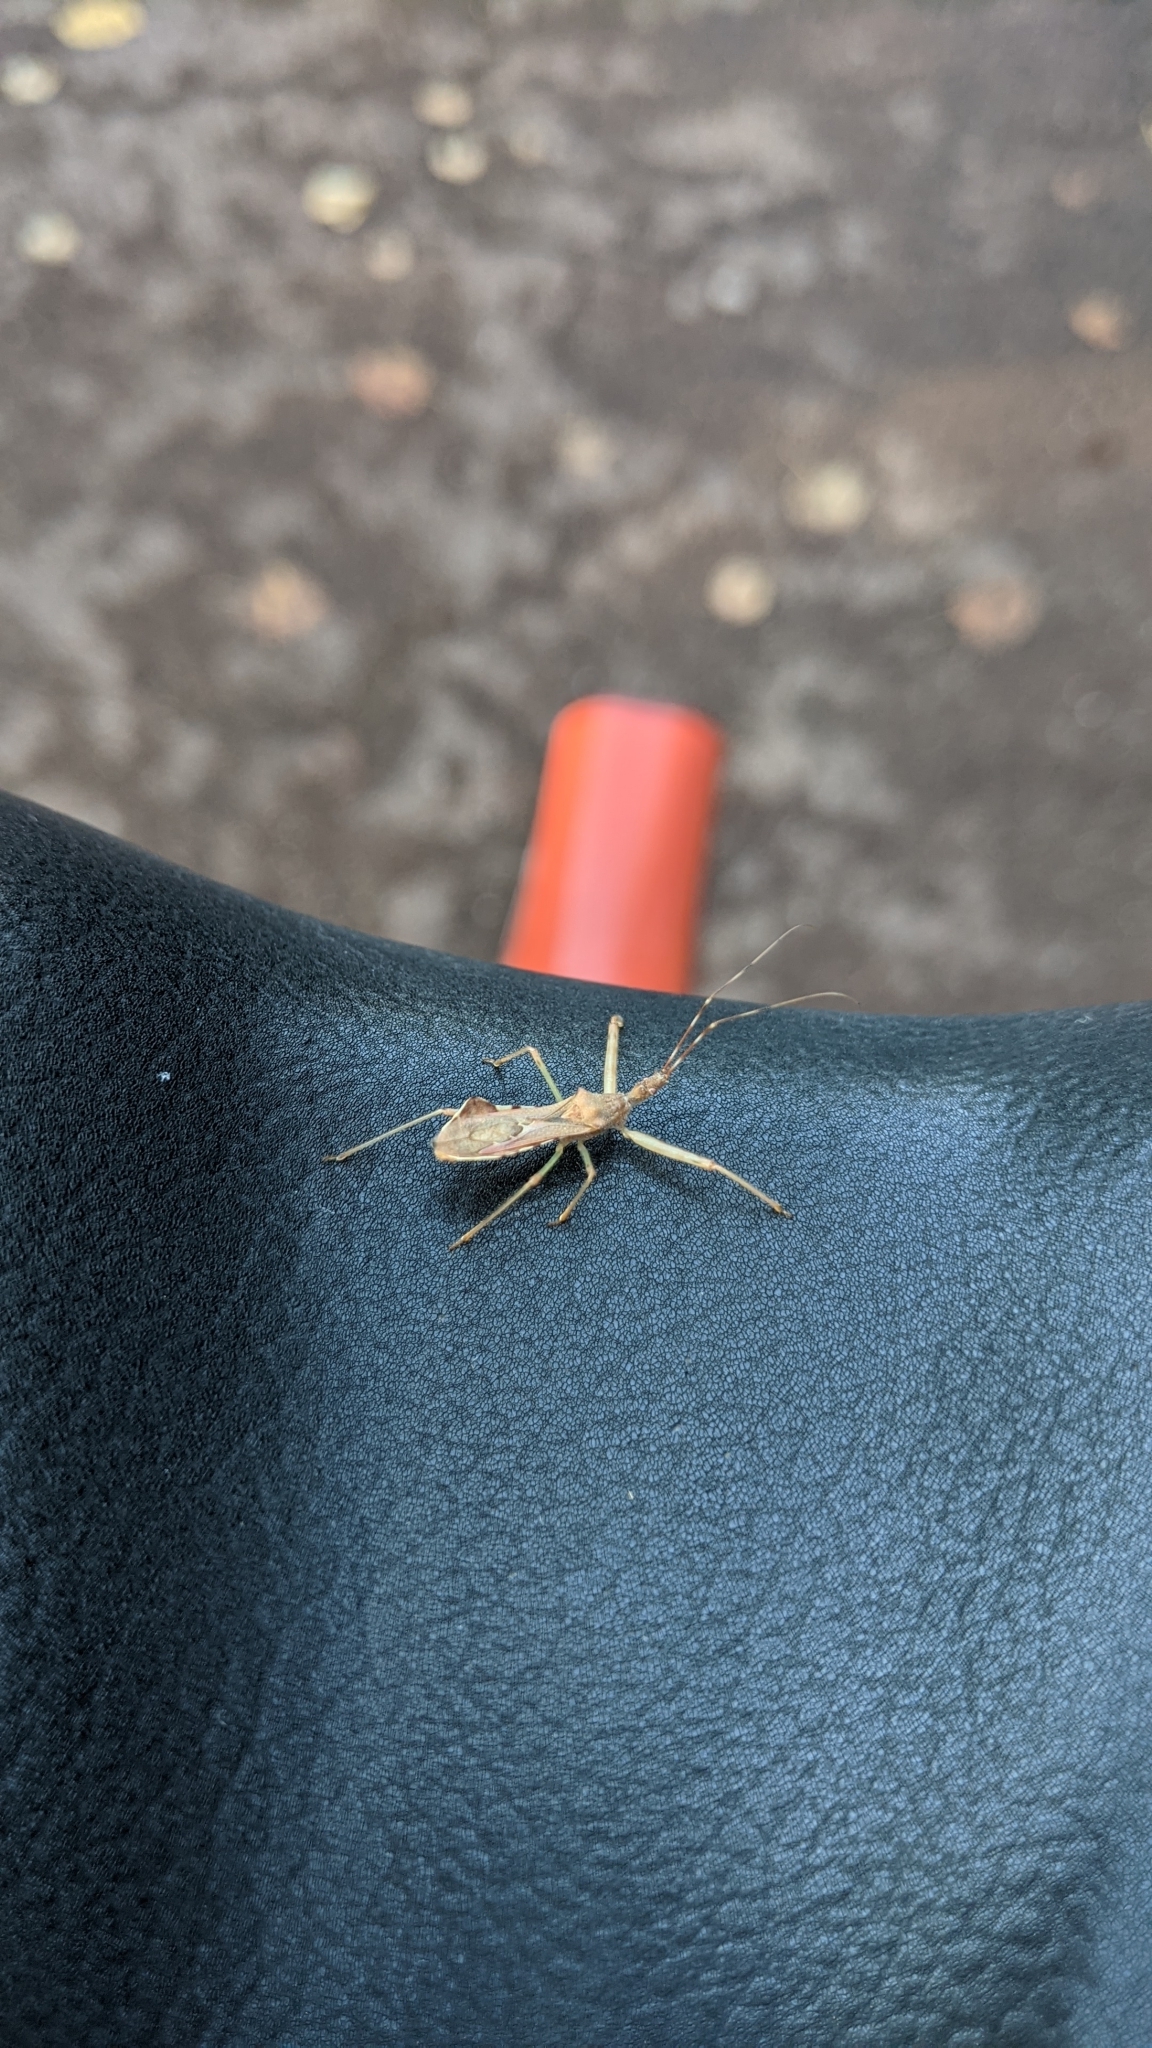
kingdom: Animalia
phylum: Arthropoda
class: Insecta
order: Hemiptera
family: Reduviidae
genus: Nagusta
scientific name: Nagusta goedelii
